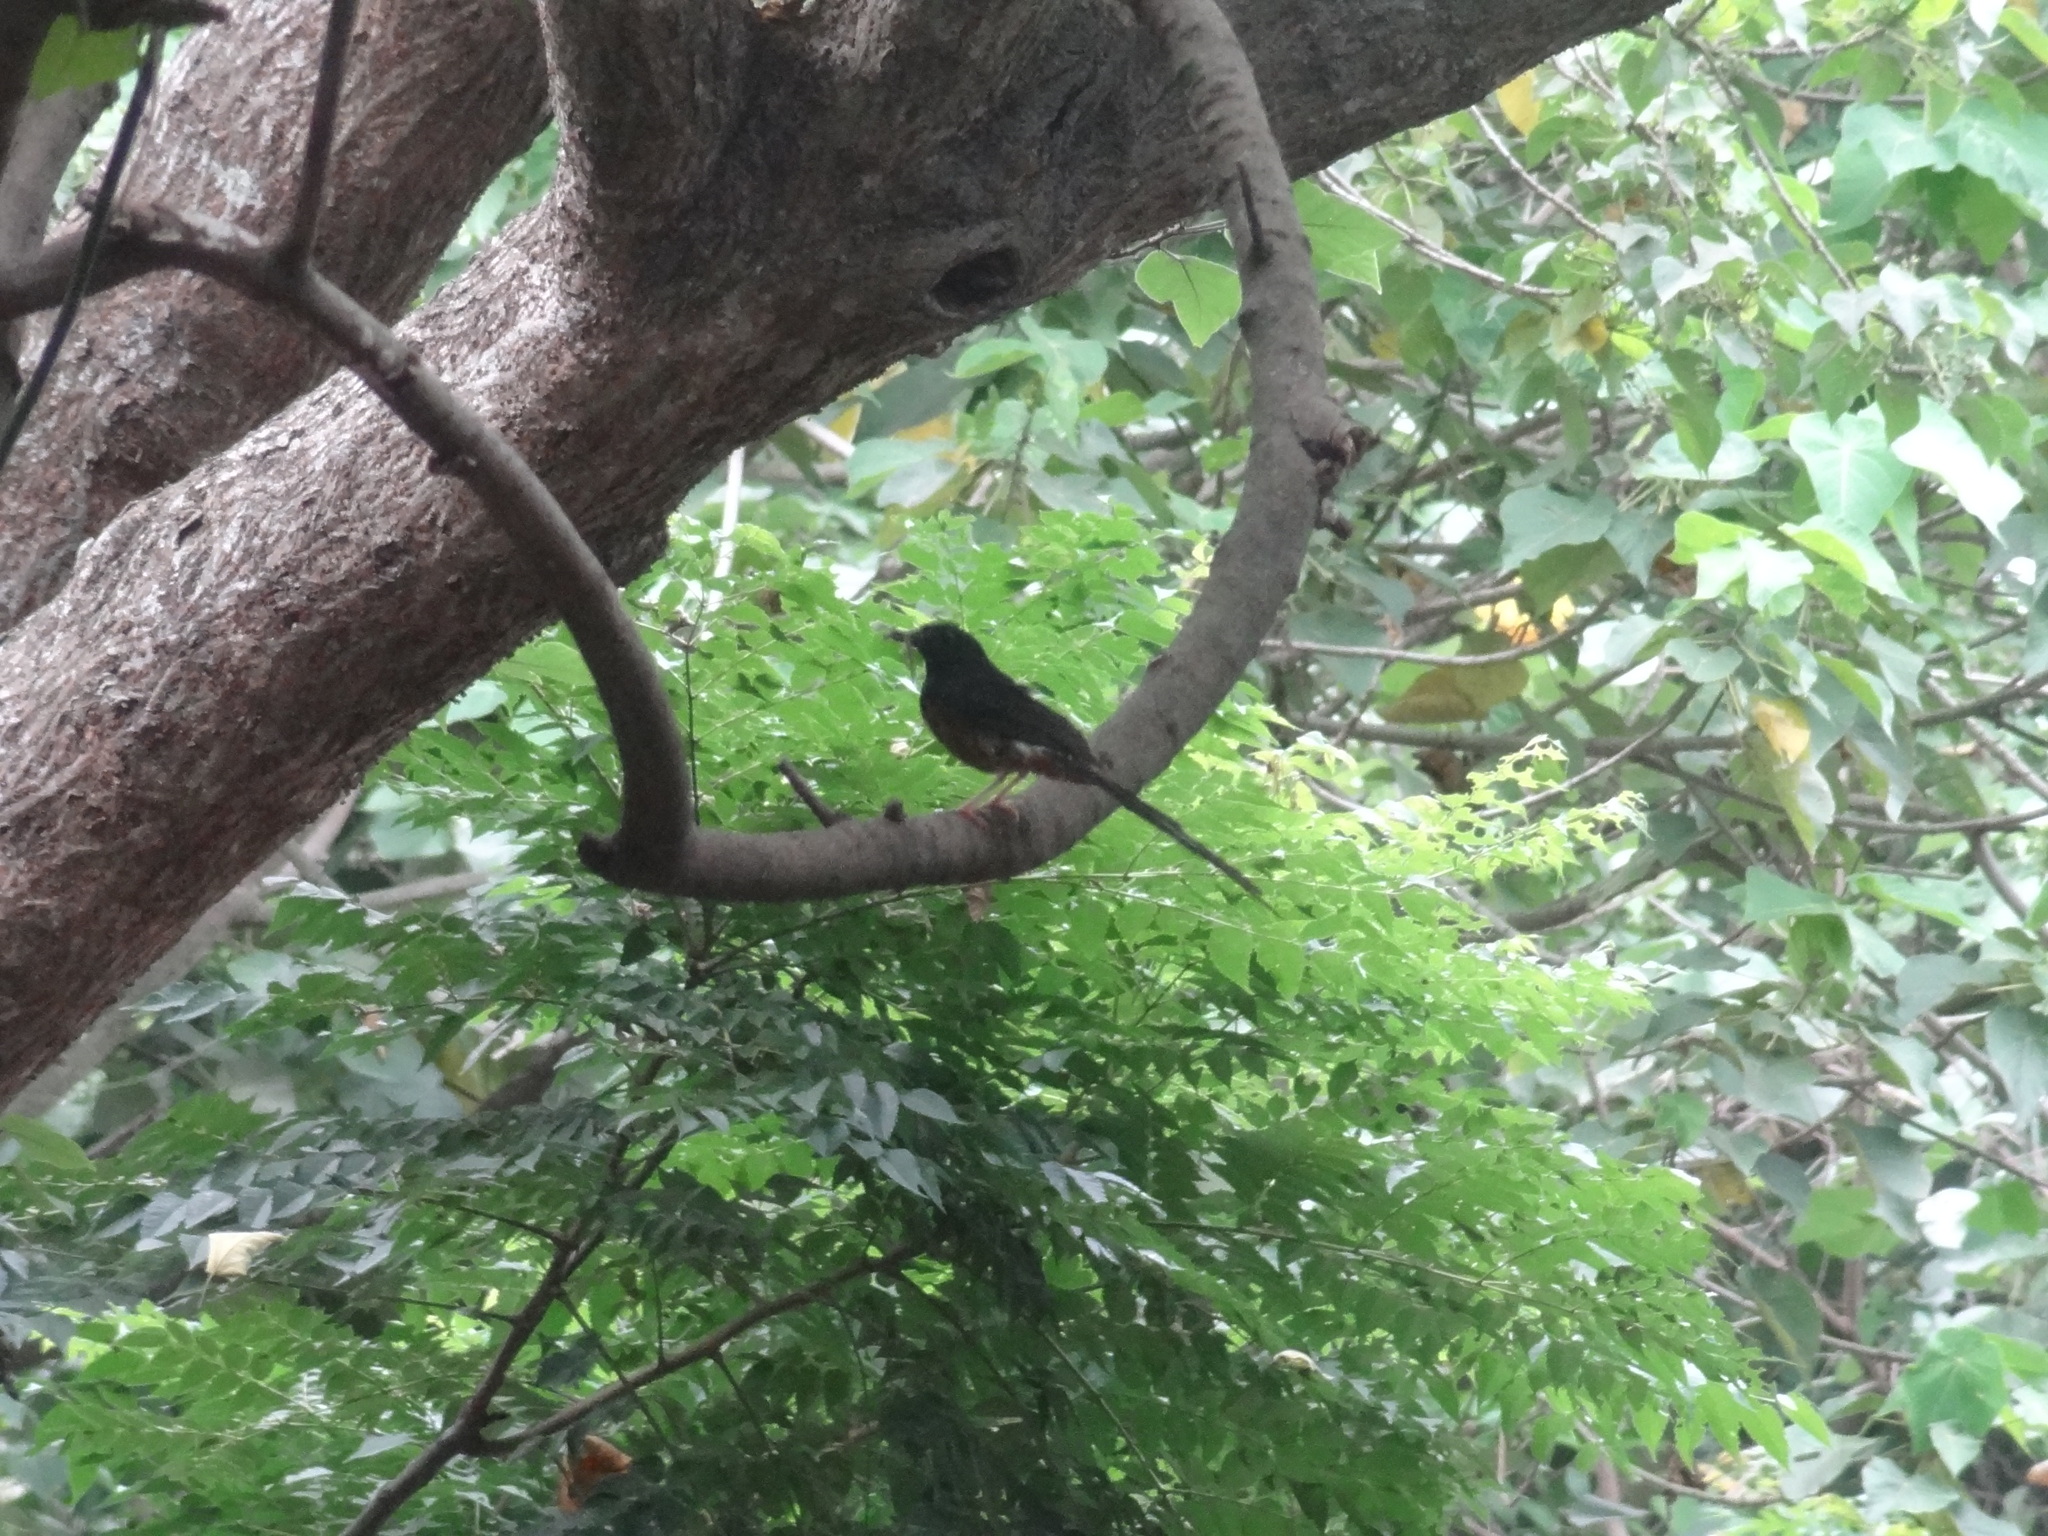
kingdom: Animalia
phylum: Chordata
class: Aves
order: Passeriformes
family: Muscicapidae
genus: Copsychus
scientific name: Copsychus malabaricus
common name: White-rumped shama
